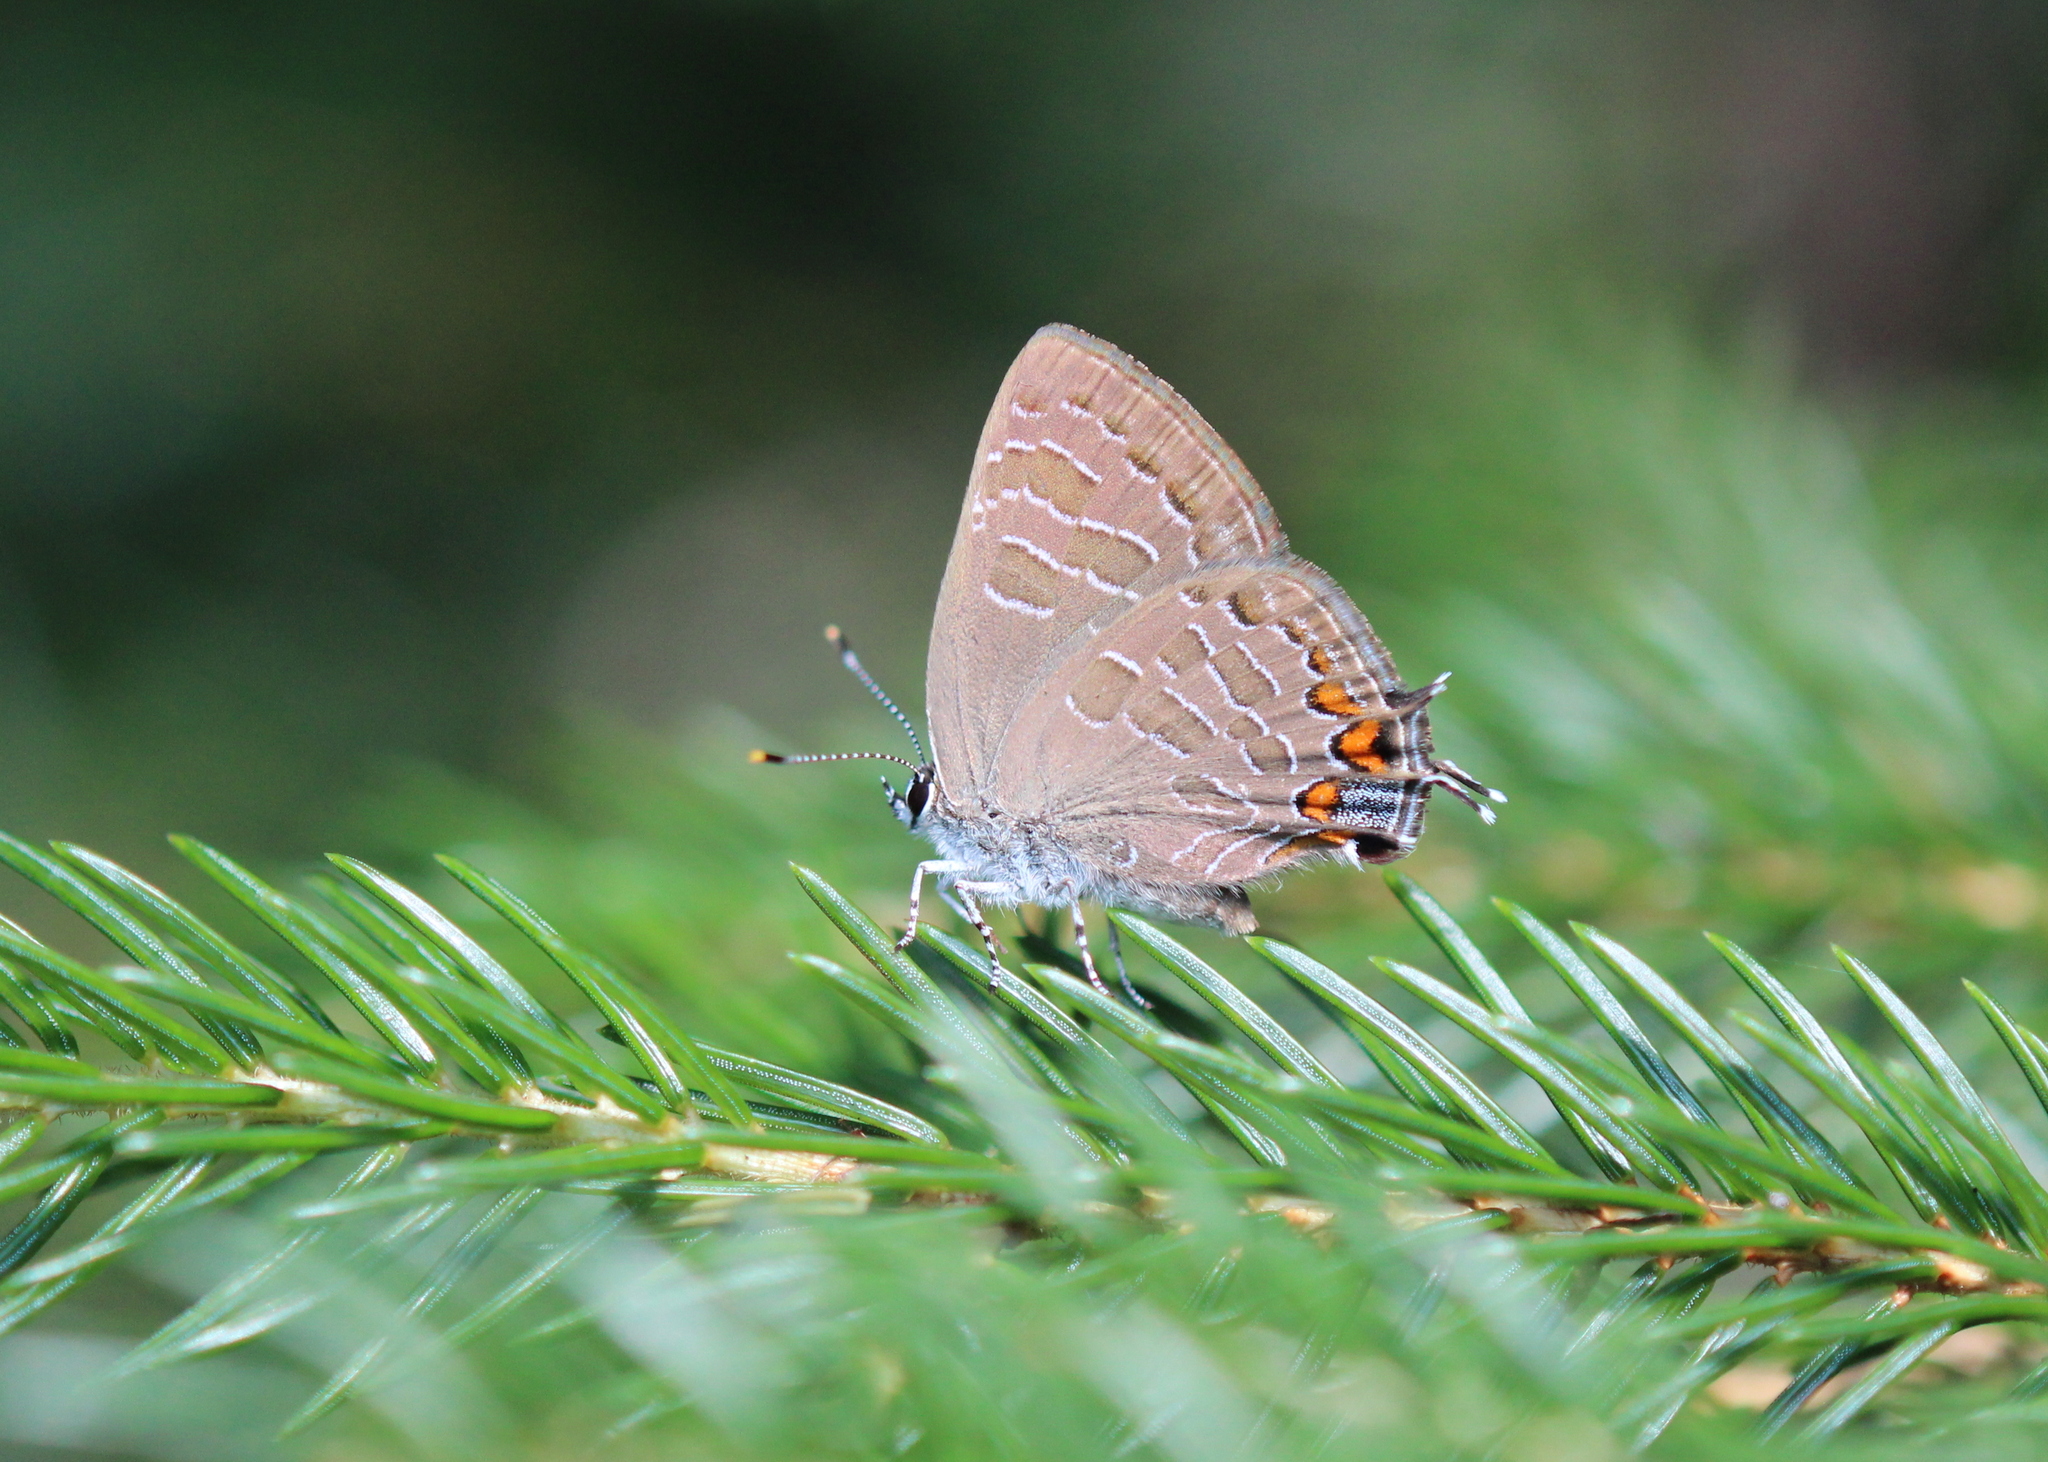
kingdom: Animalia
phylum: Arthropoda
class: Insecta
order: Lepidoptera
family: Lycaenidae
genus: Satyrium
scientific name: Satyrium liparops
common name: Striped hairstreak
